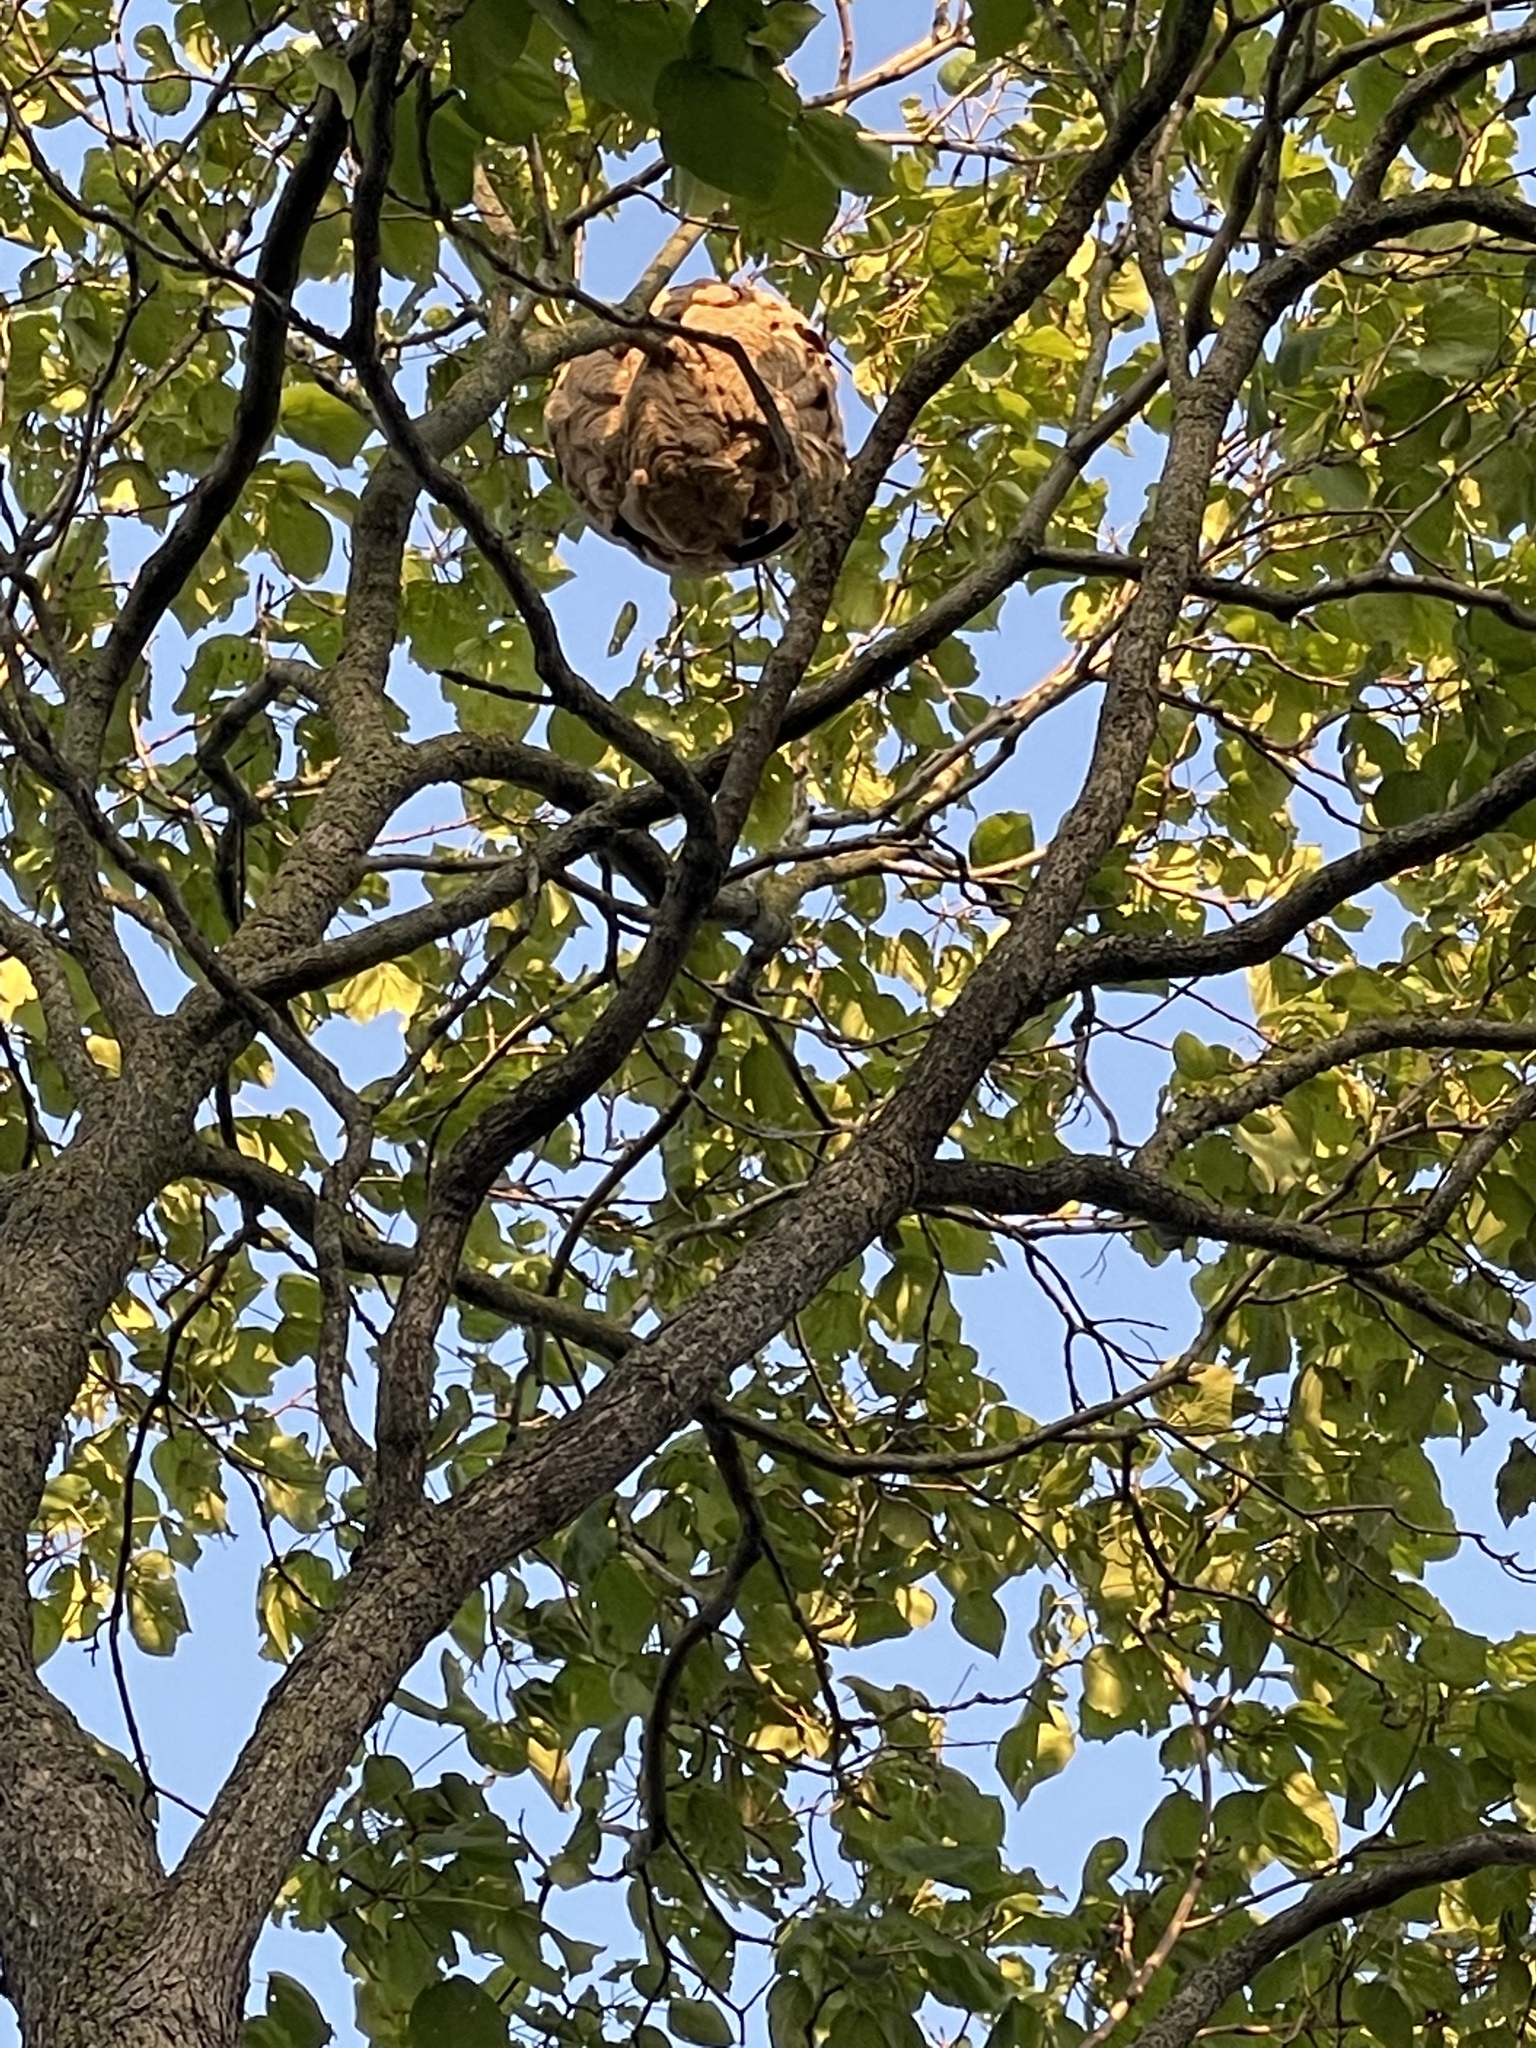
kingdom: Animalia
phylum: Arthropoda
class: Insecta
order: Hymenoptera
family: Vespidae
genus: Vespa
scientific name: Vespa velutina
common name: Asian hornet
